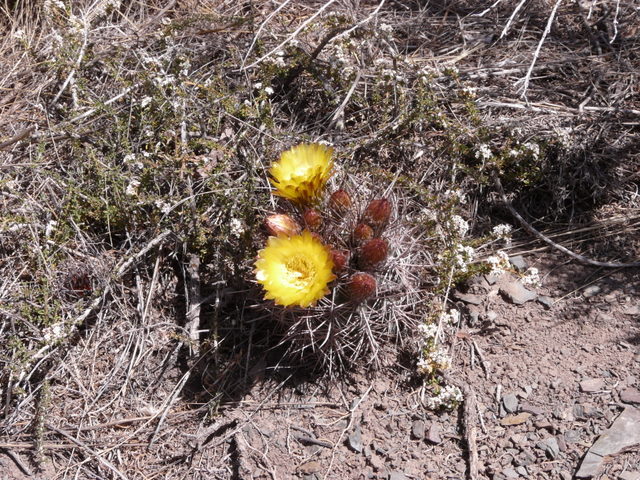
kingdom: Plantae
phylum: Tracheophyta
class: Magnoliopsida
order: Caryophyllales
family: Cactaceae
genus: Eriosyce
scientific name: Eriosyce strausiana
